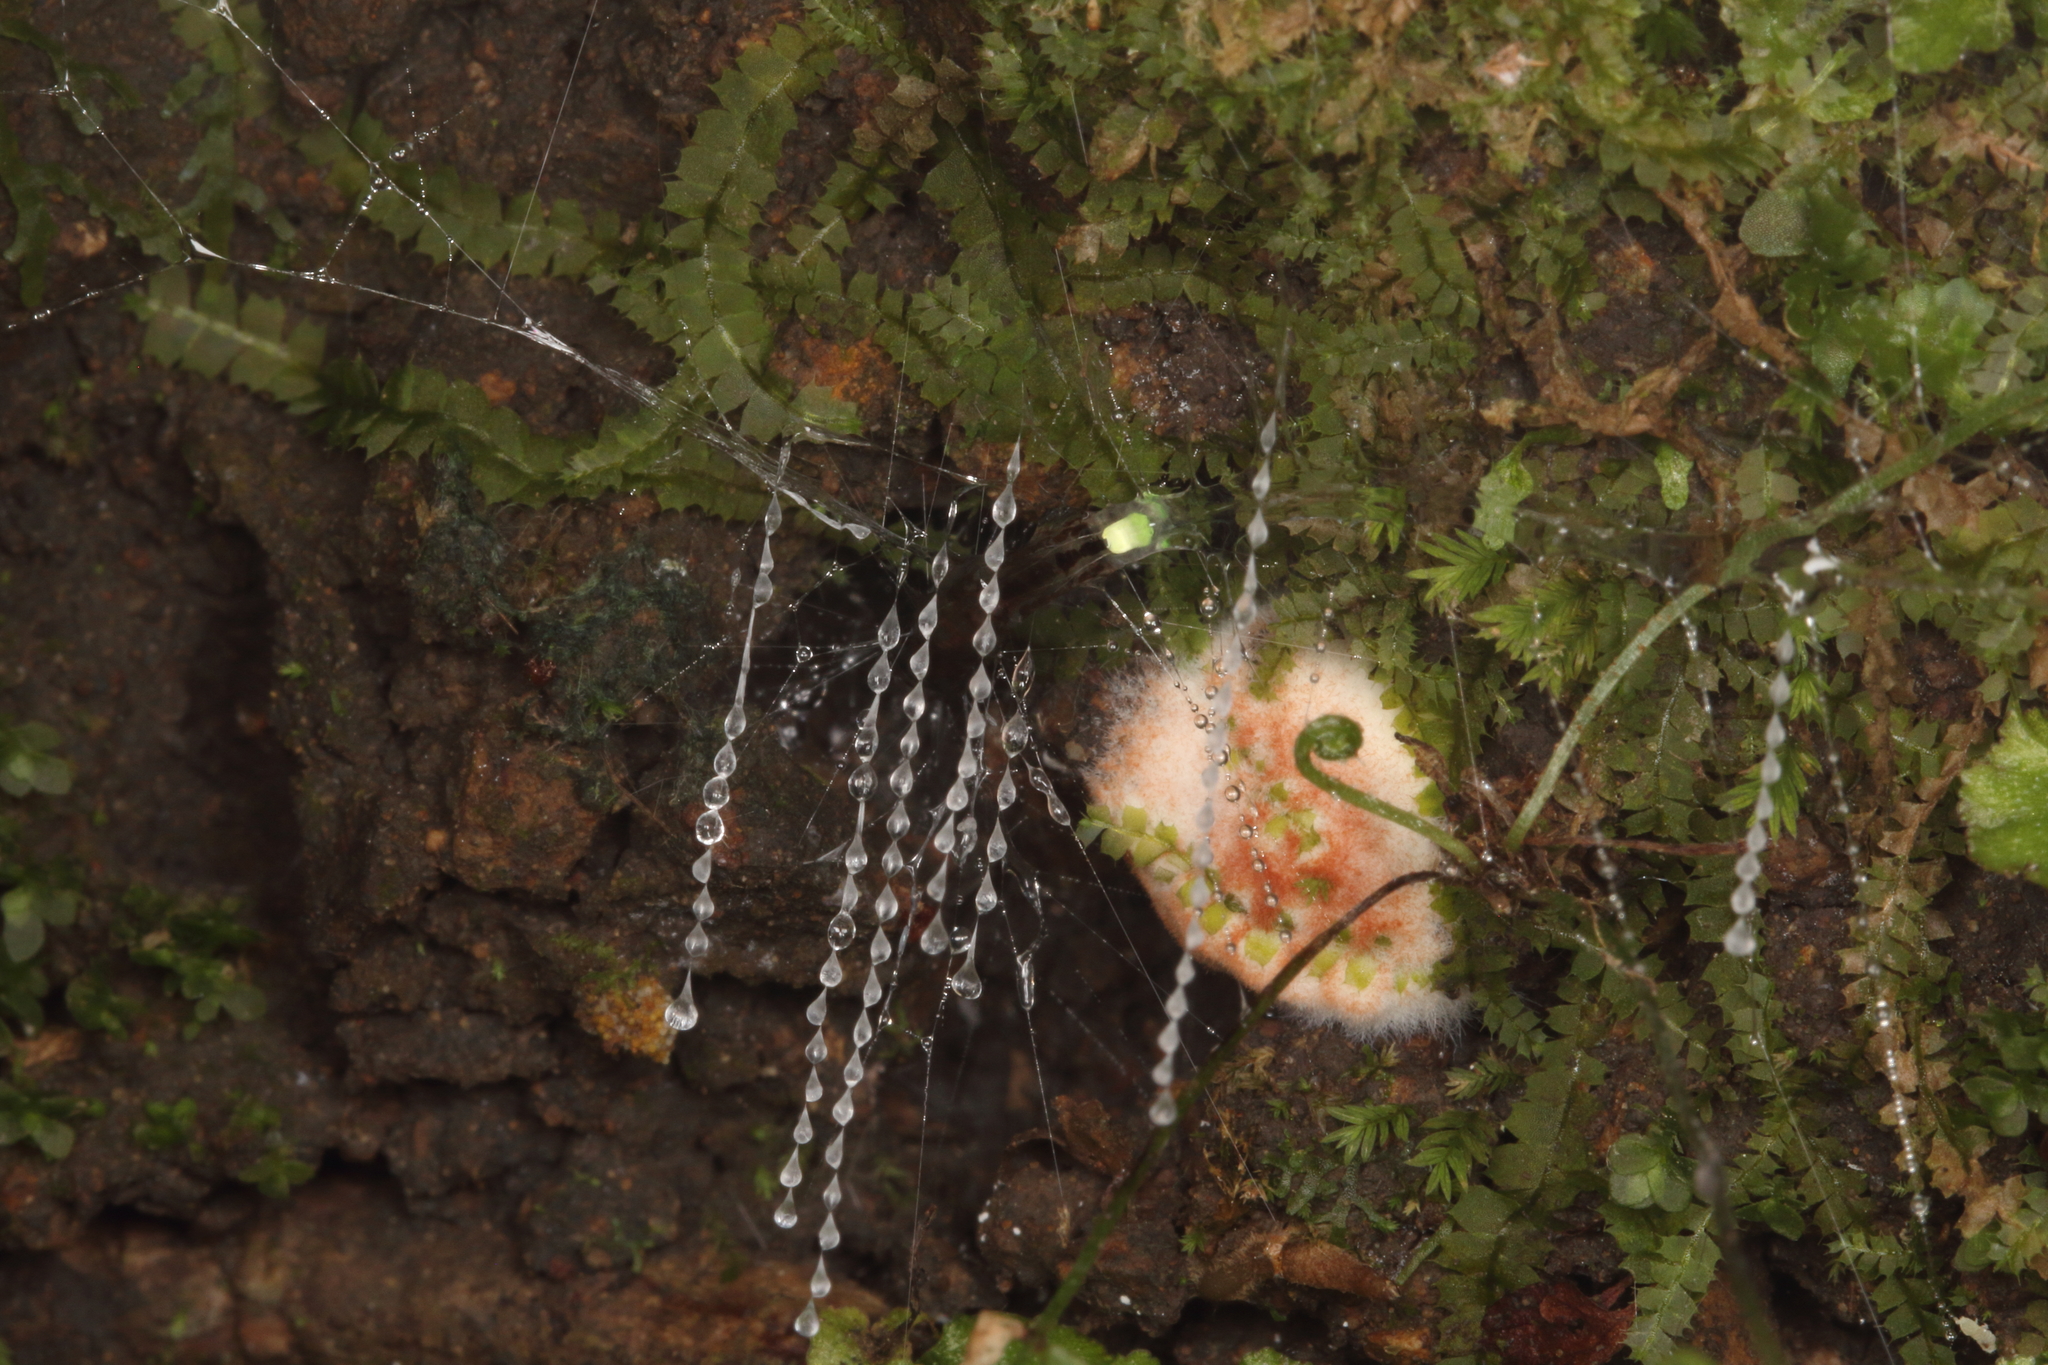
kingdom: Animalia
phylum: Arthropoda
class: Insecta
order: Diptera
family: Keroplatidae
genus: Arachnocampa
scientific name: Arachnocampa luminosa
